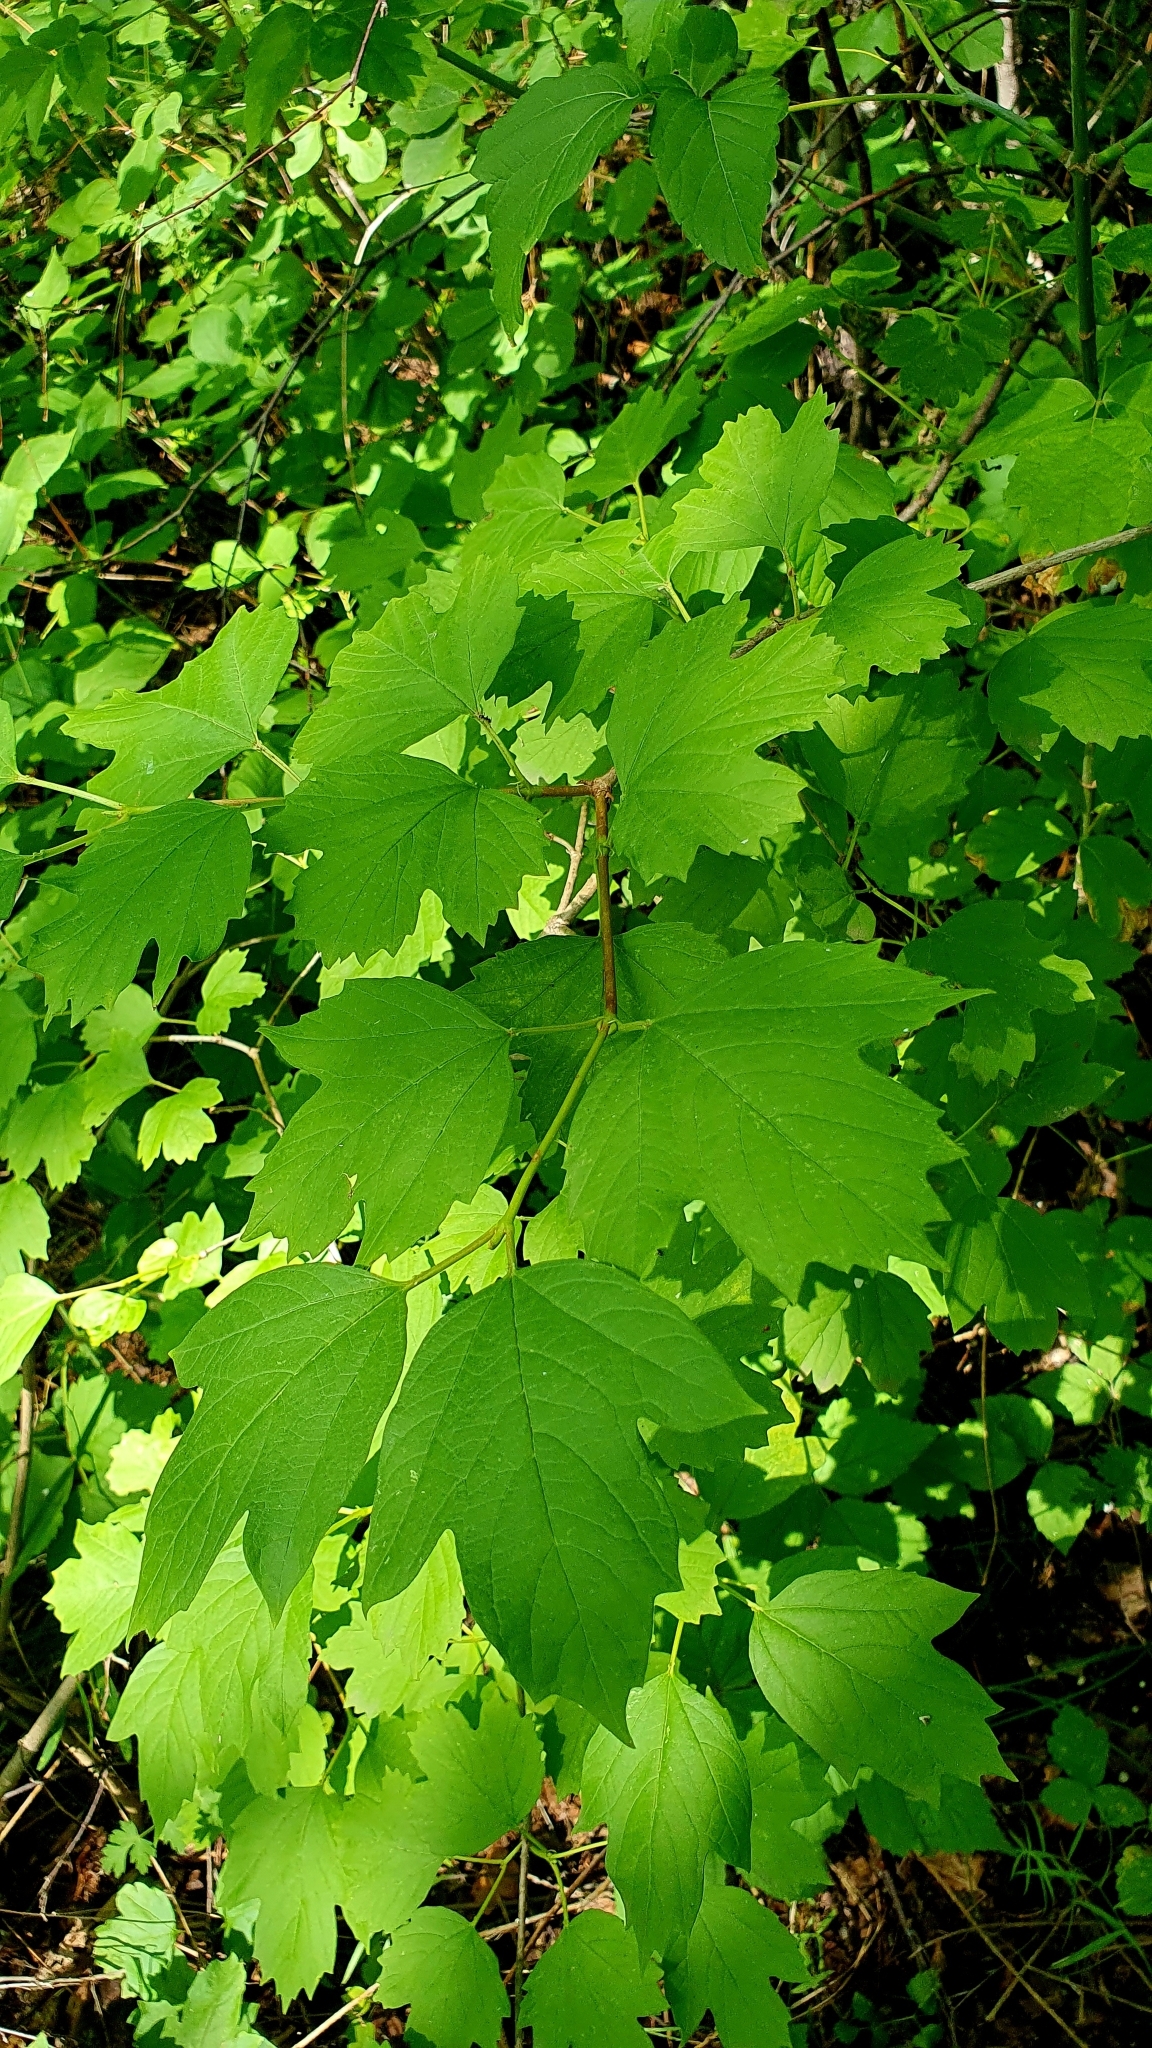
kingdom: Plantae
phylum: Tracheophyta
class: Magnoliopsida
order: Dipsacales
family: Viburnaceae
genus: Viburnum
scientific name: Viburnum opulus
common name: Guelder-rose
